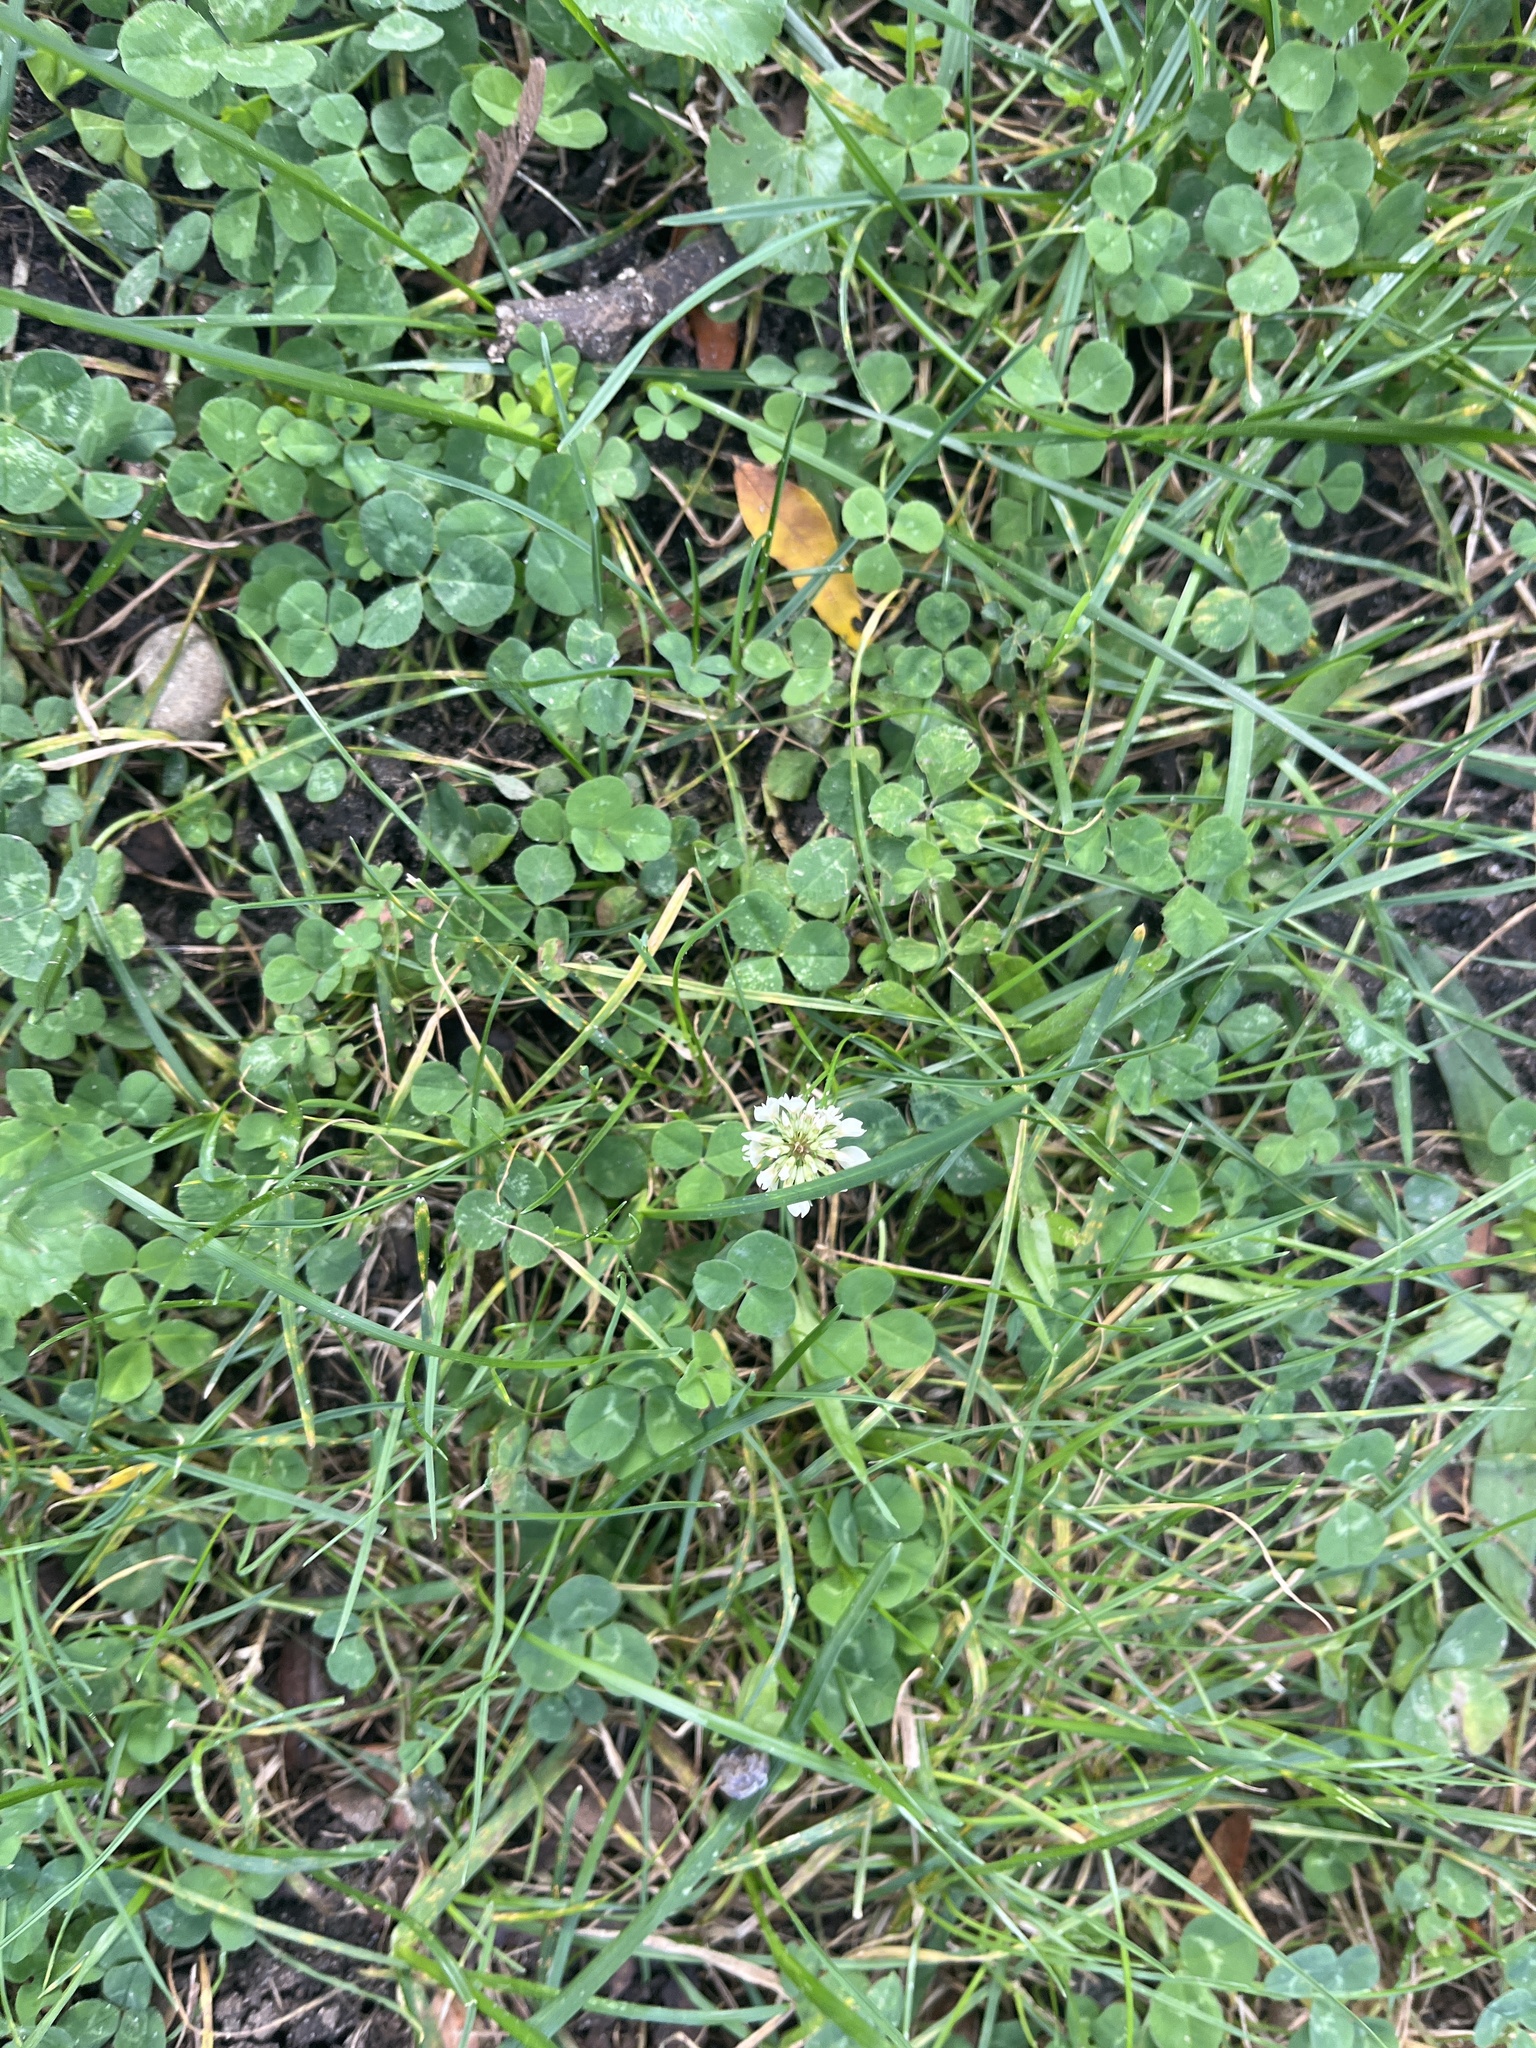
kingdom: Plantae
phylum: Tracheophyta
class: Magnoliopsida
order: Fabales
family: Fabaceae
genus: Trifolium
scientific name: Trifolium repens
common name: White clover
